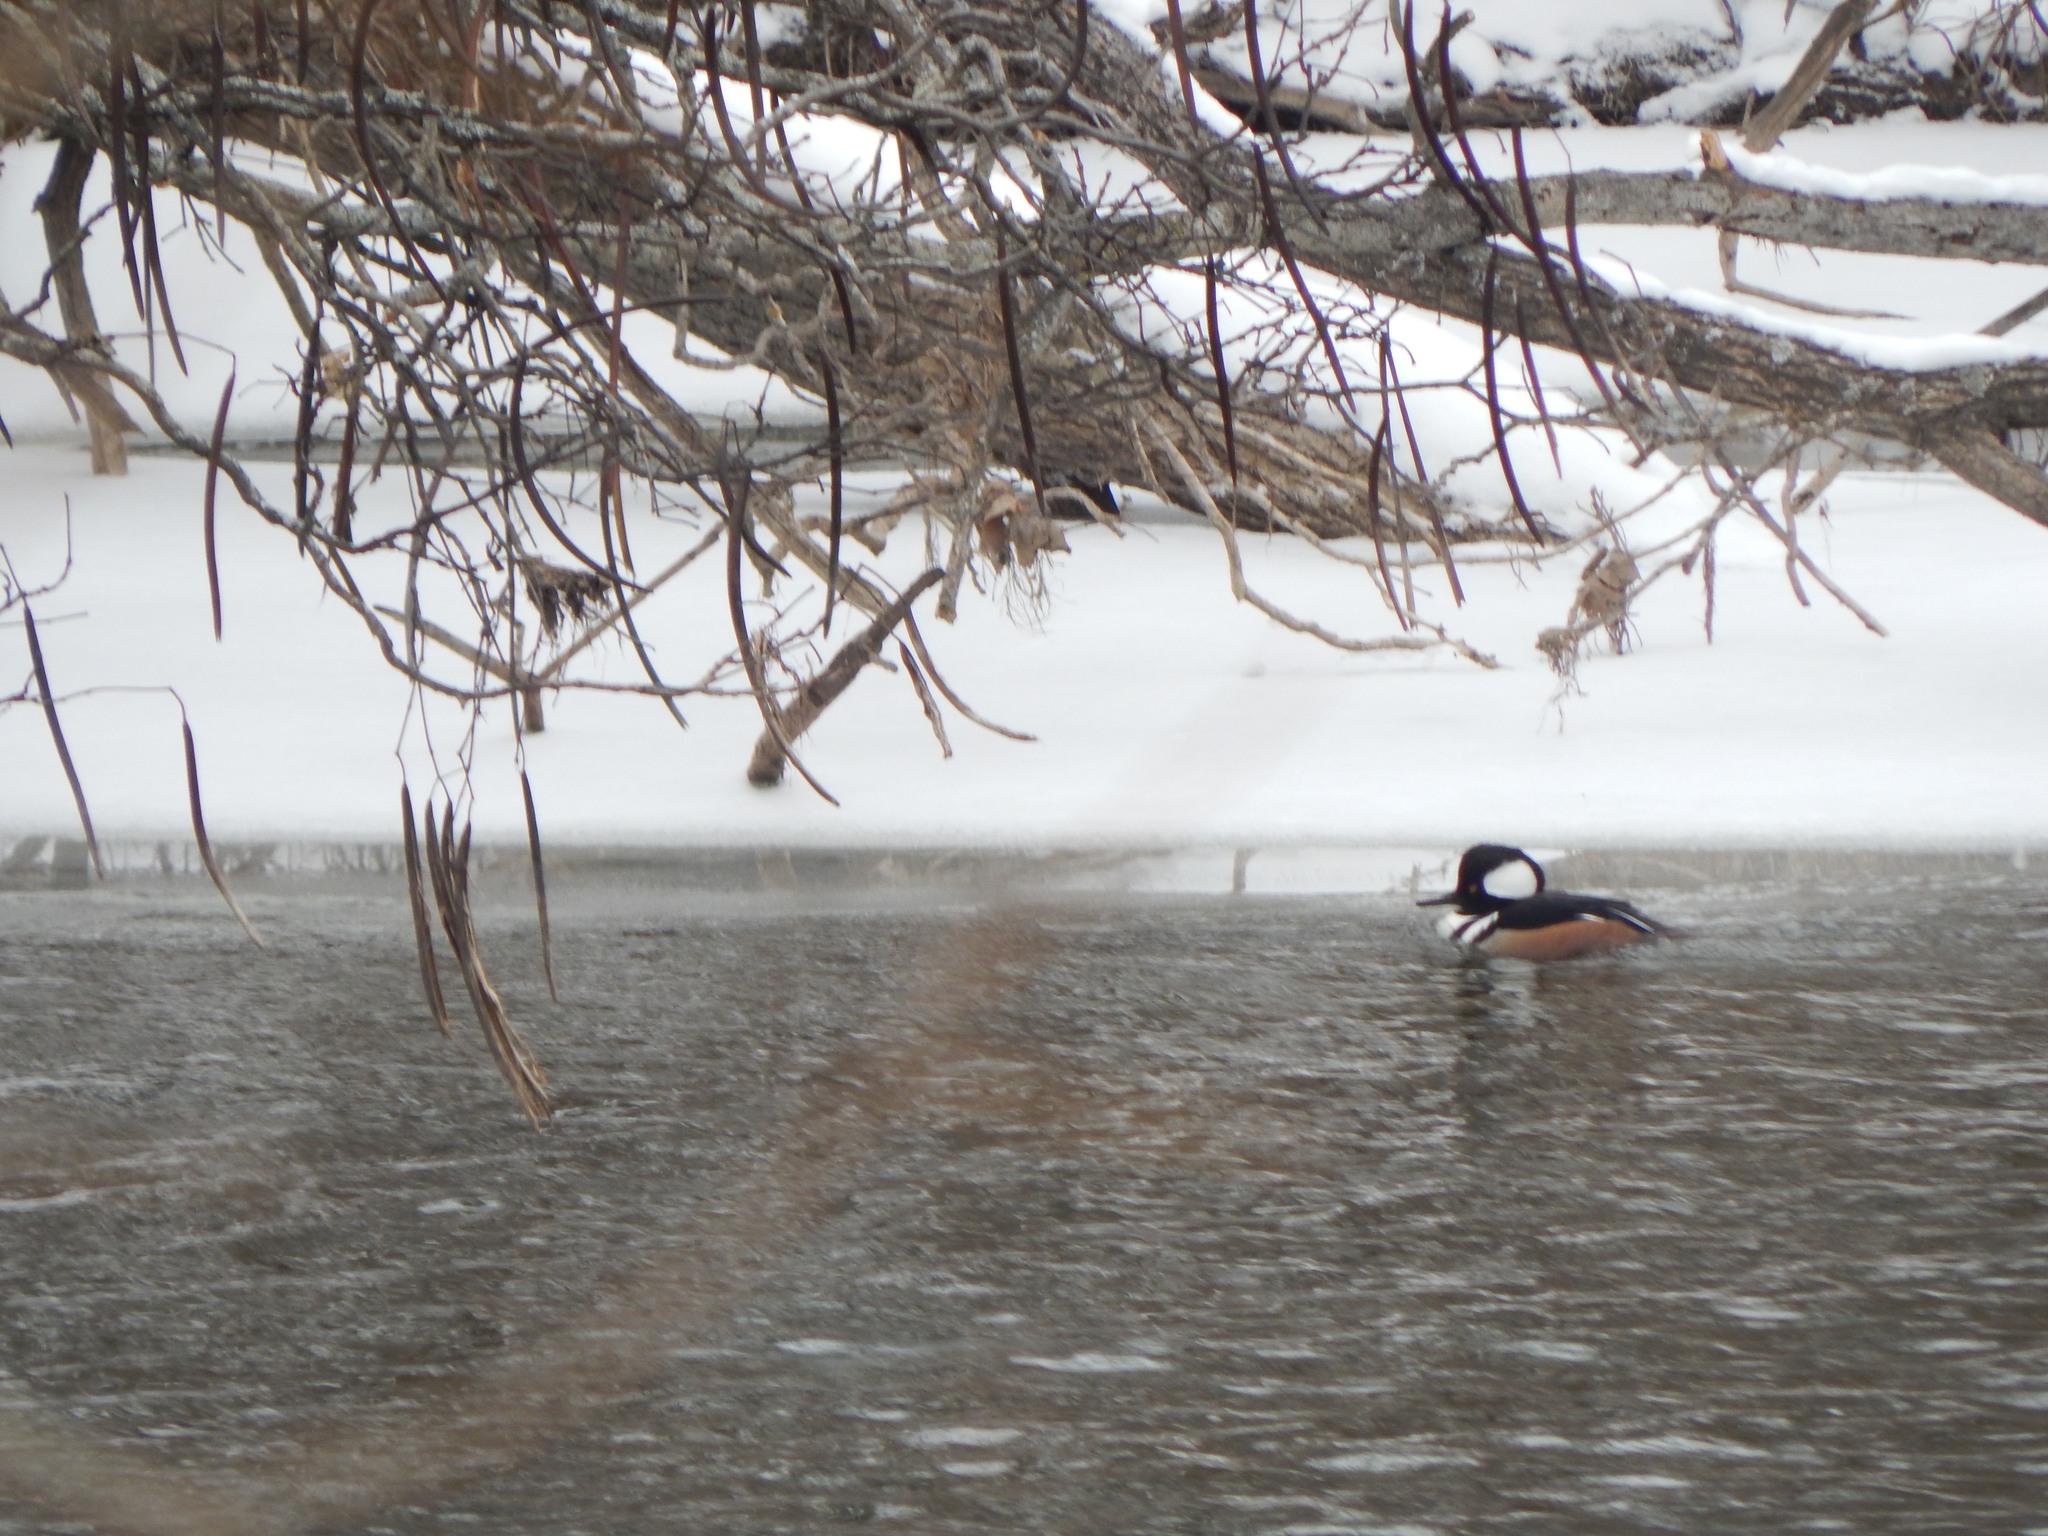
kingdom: Animalia
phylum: Chordata
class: Aves
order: Anseriformes
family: Anatidae
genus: Lophodytes
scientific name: Lophodytes cucullatus
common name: Hooded merganser
